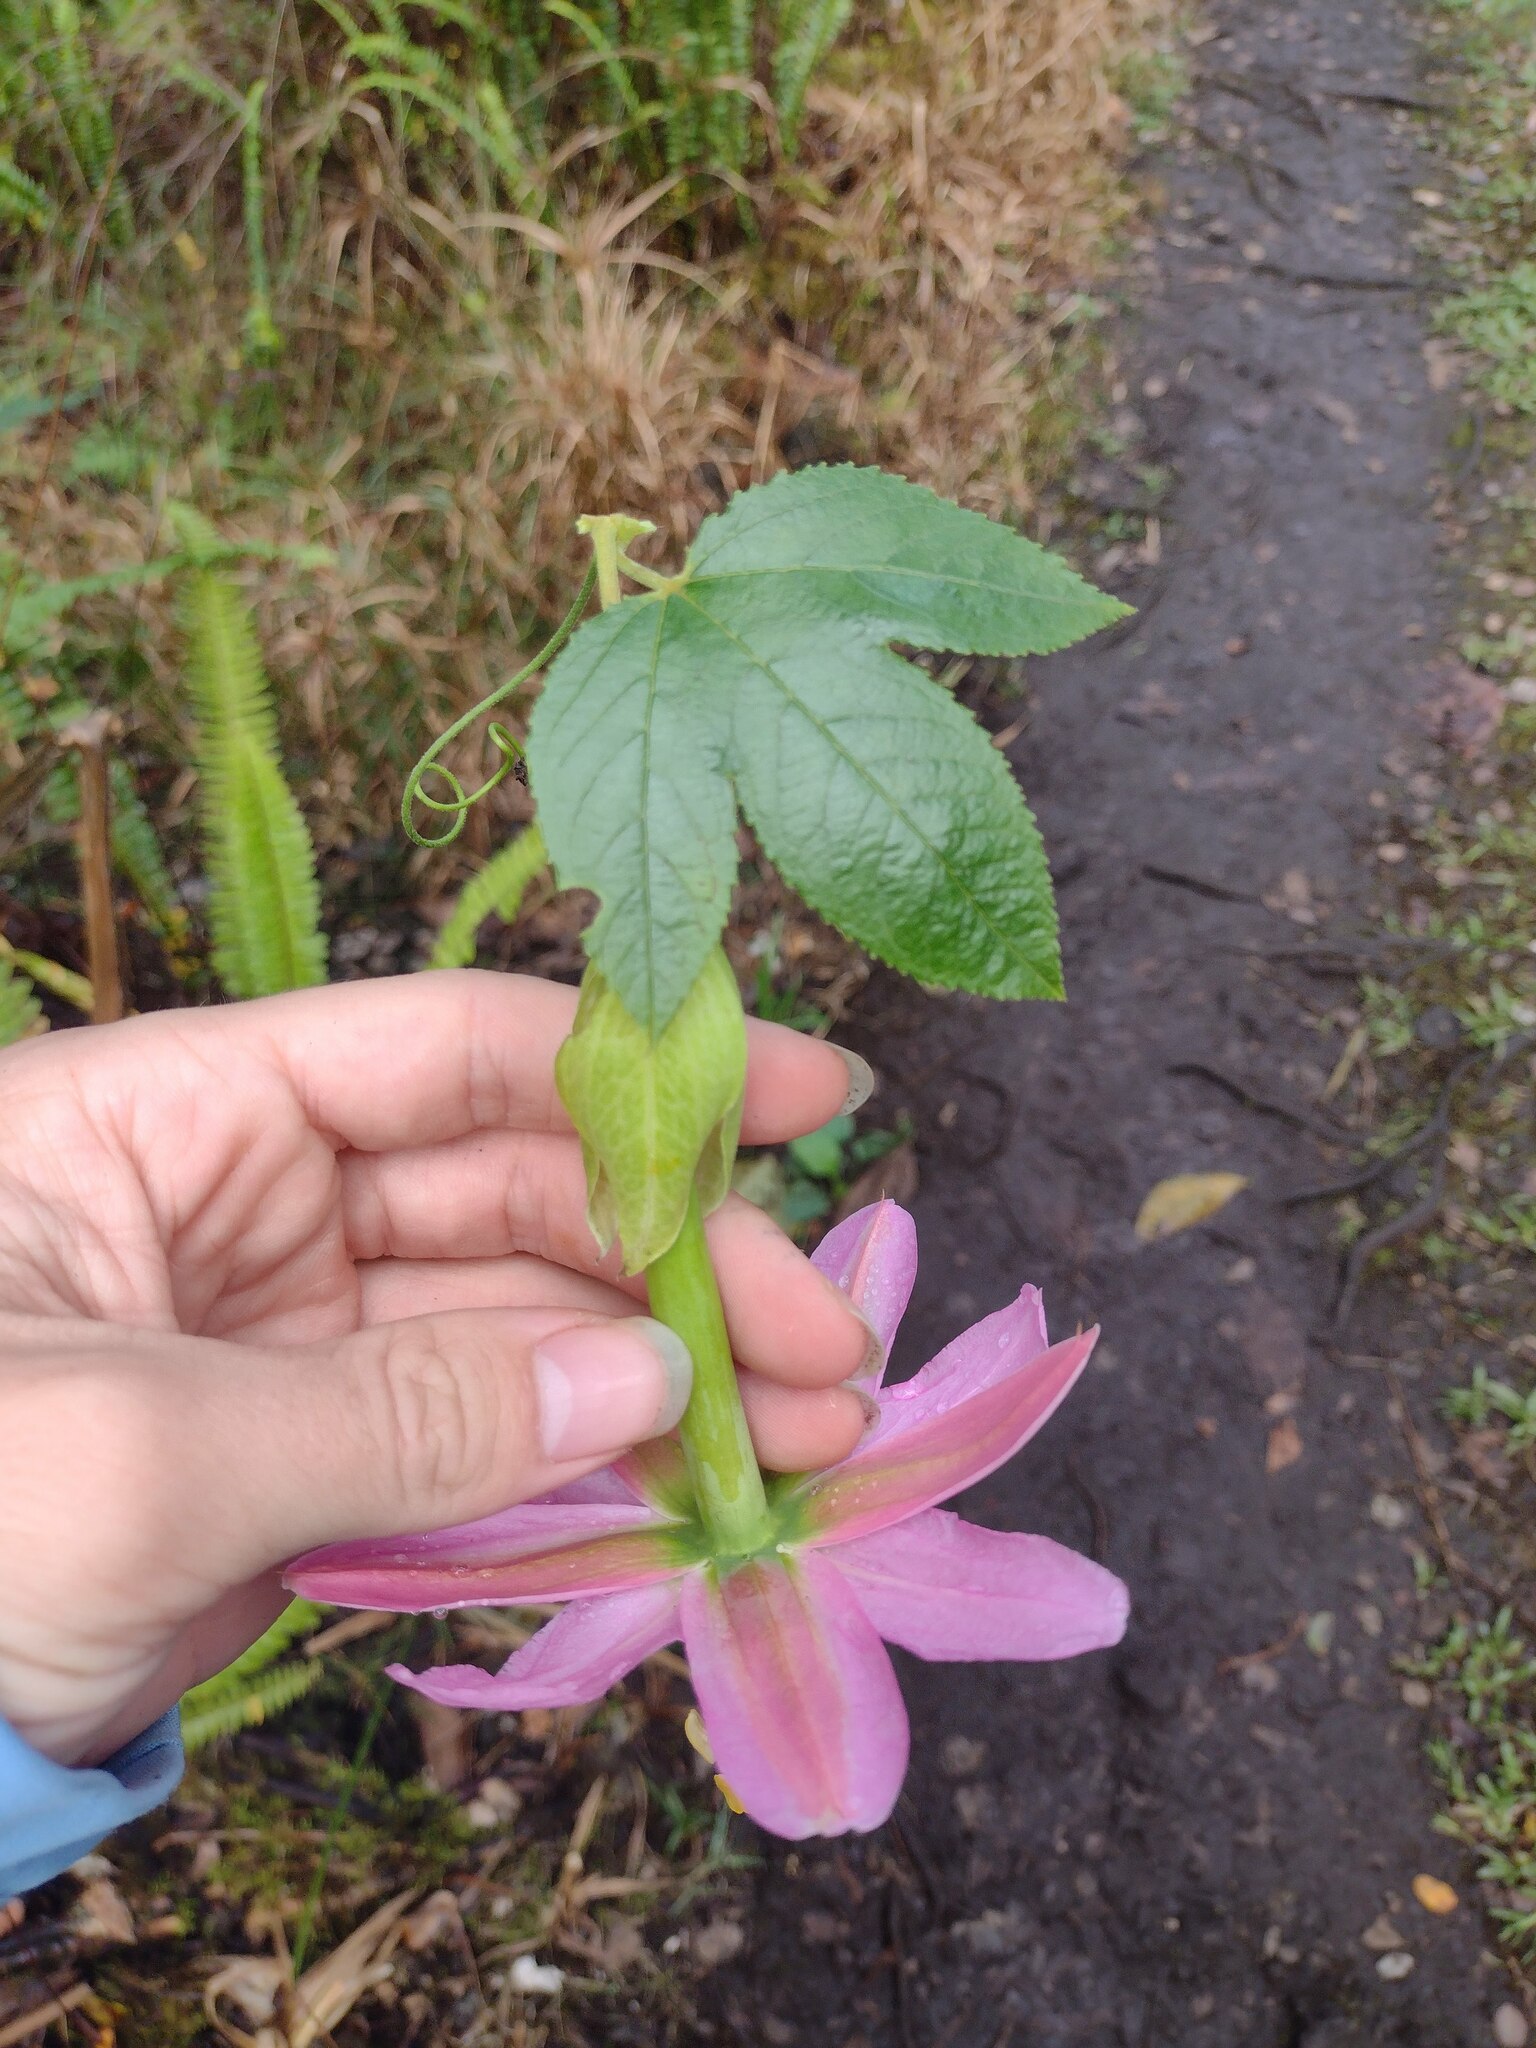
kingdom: Plantae
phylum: Tracheophyta
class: Magnoliopsida
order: Malpighiales
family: Passifloraceae
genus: Passiflora
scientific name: Passiflora tarminiana
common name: Banana poka
